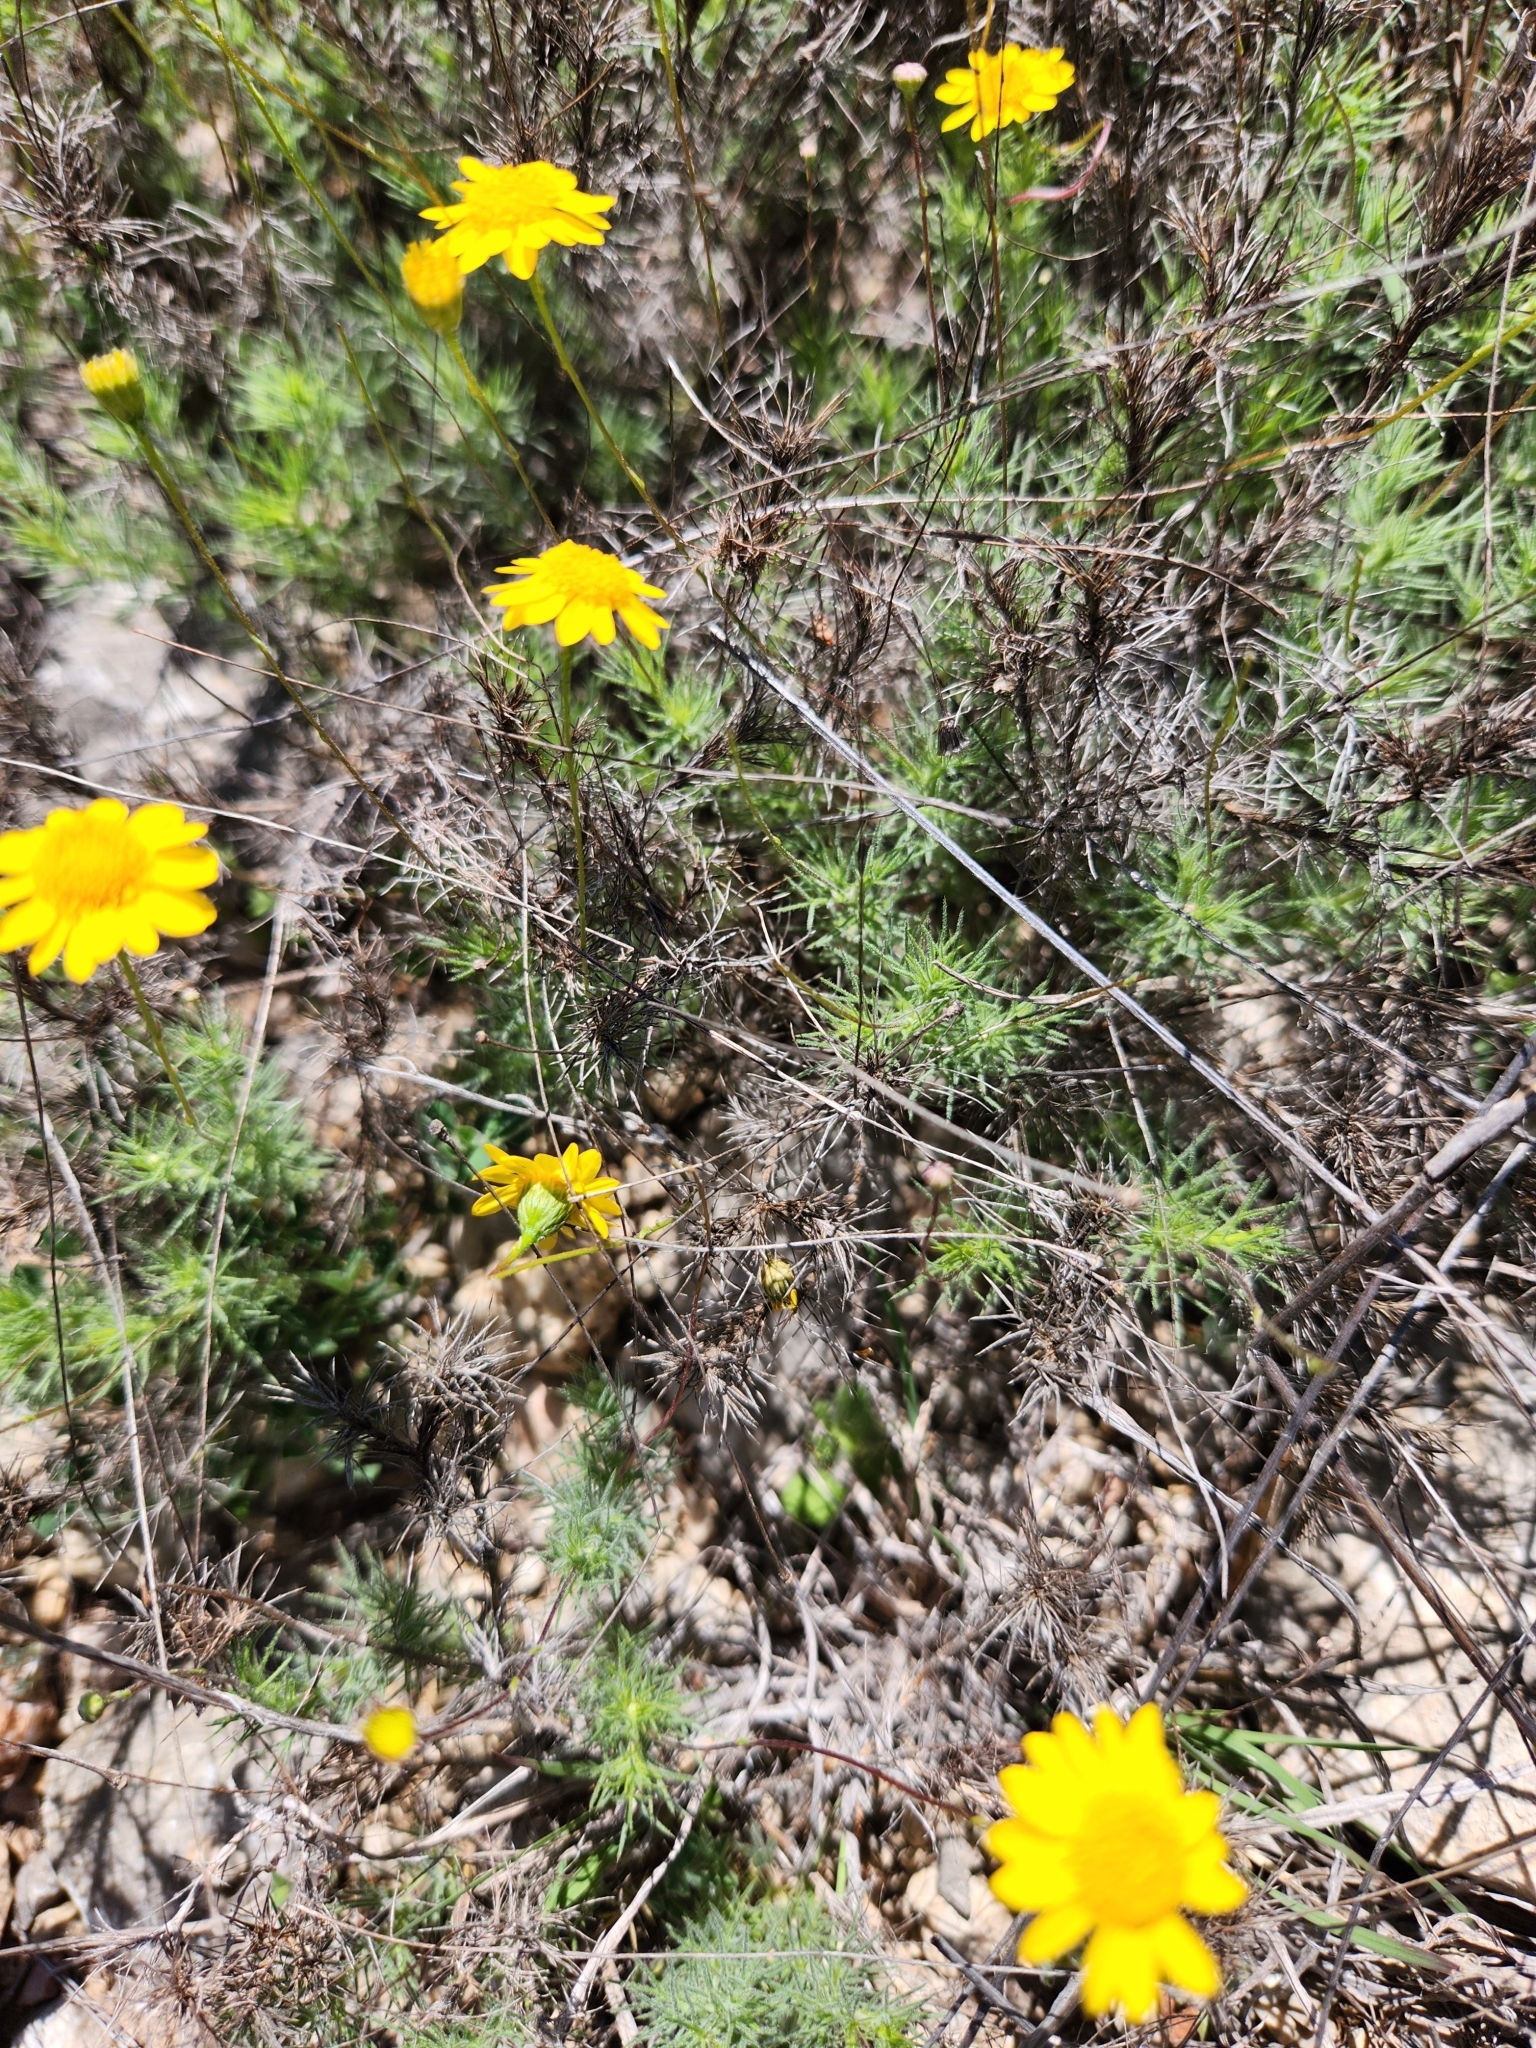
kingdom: Plantae
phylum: Tracheophyta
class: Magnoliopsida
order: Asterales
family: Asteraceae
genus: Thymophylla
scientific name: Thymophylla pentachaeta
